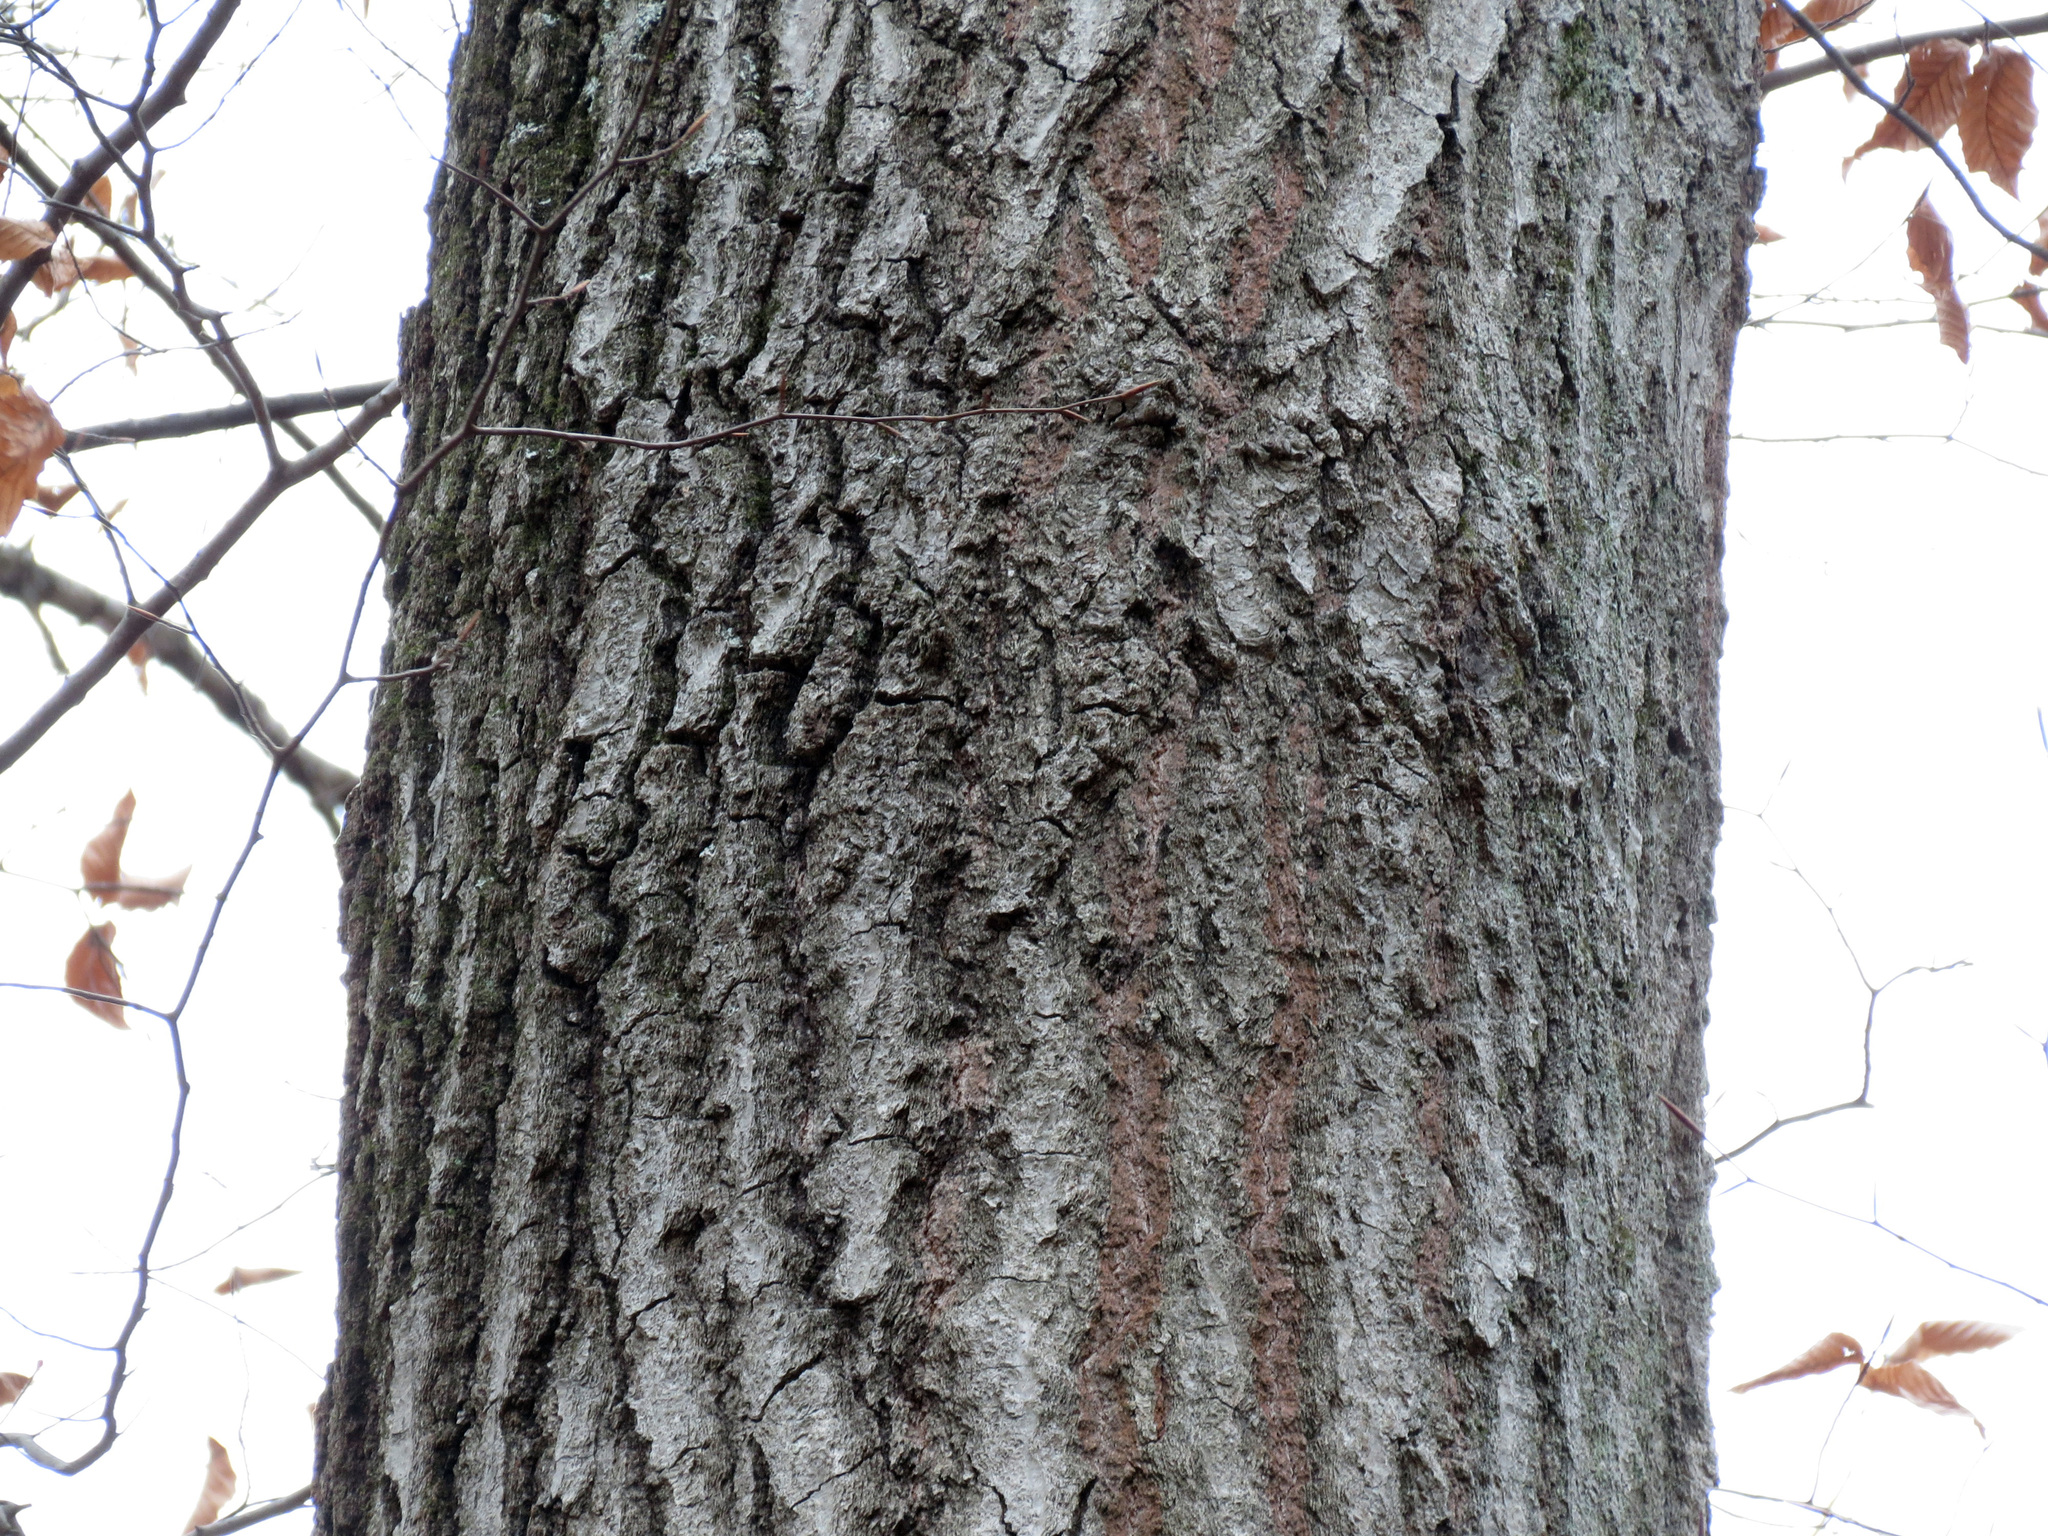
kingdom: Plantae
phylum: Tracheophyta
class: Magnoliopsida
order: Fagales
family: Fagaceae
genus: Quercus
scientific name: Quercus rubra
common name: Red oak
